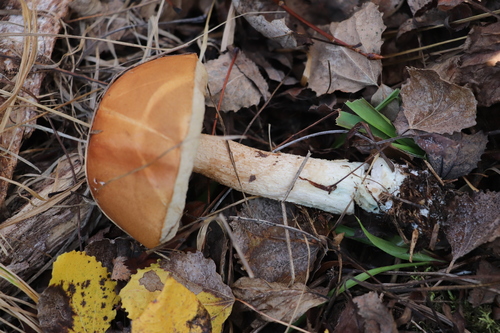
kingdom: Fungi
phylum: Basidiomycota
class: Agaricomycetes
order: Boletales
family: Boletaceae
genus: Leccinum
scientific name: Leccinum albostipitatum
